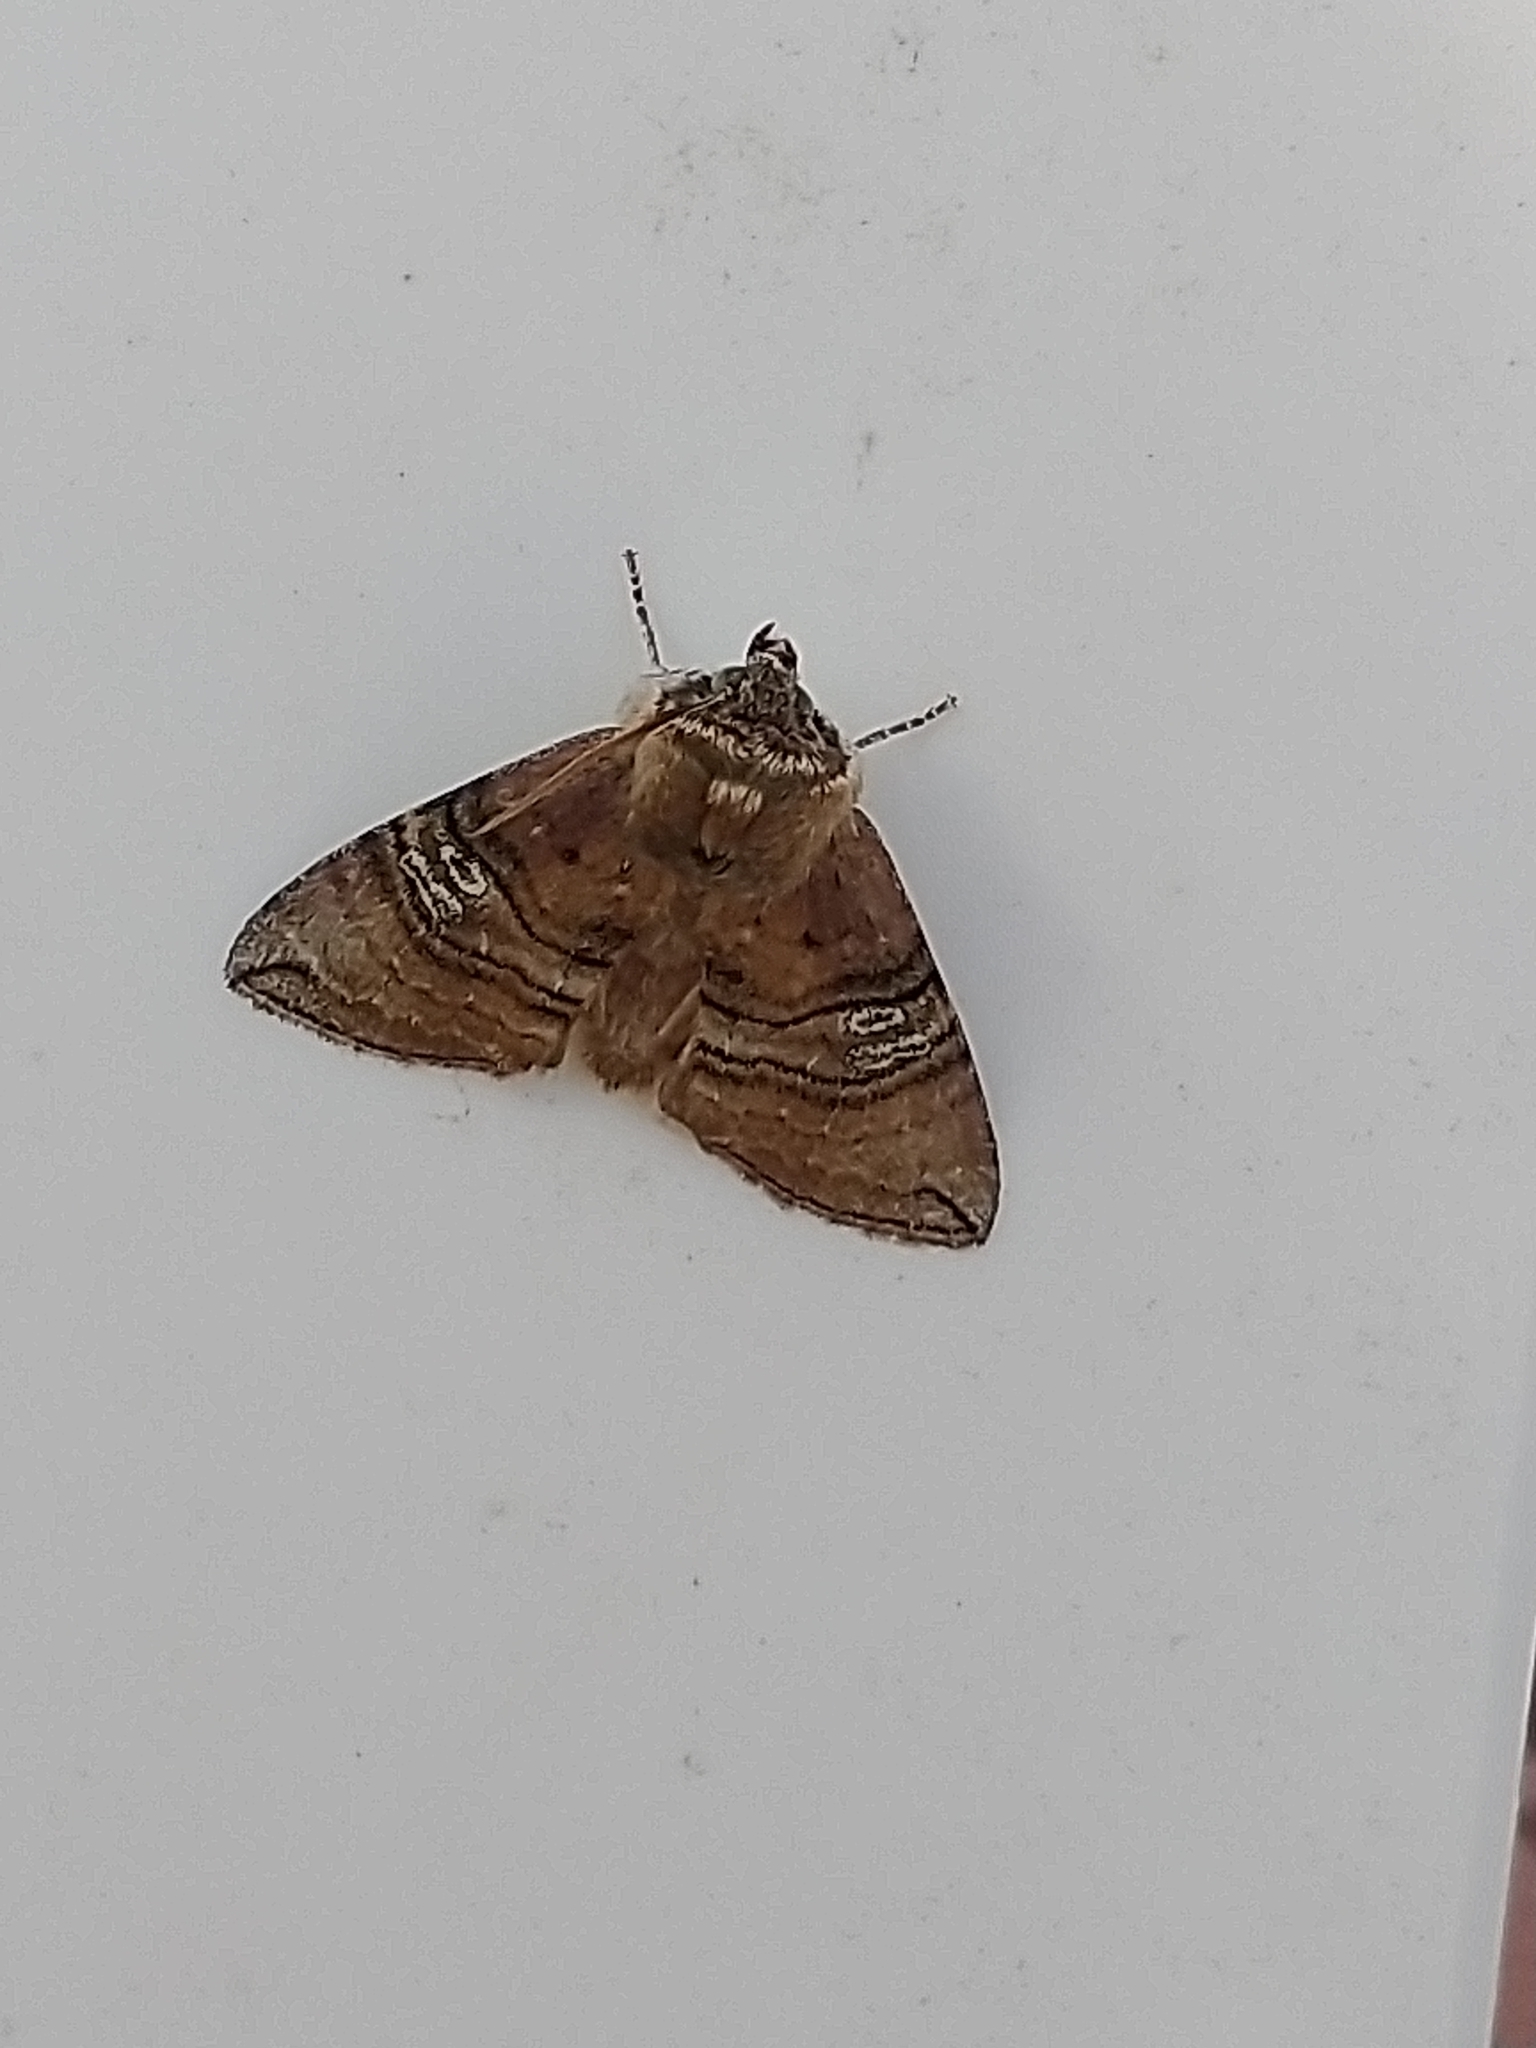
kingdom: Animalia
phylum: Arthropoda
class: Insecta
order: Lepidoptera
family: Drepanidae
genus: Tethea
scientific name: Tethea ocularis
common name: Figure of eighty
